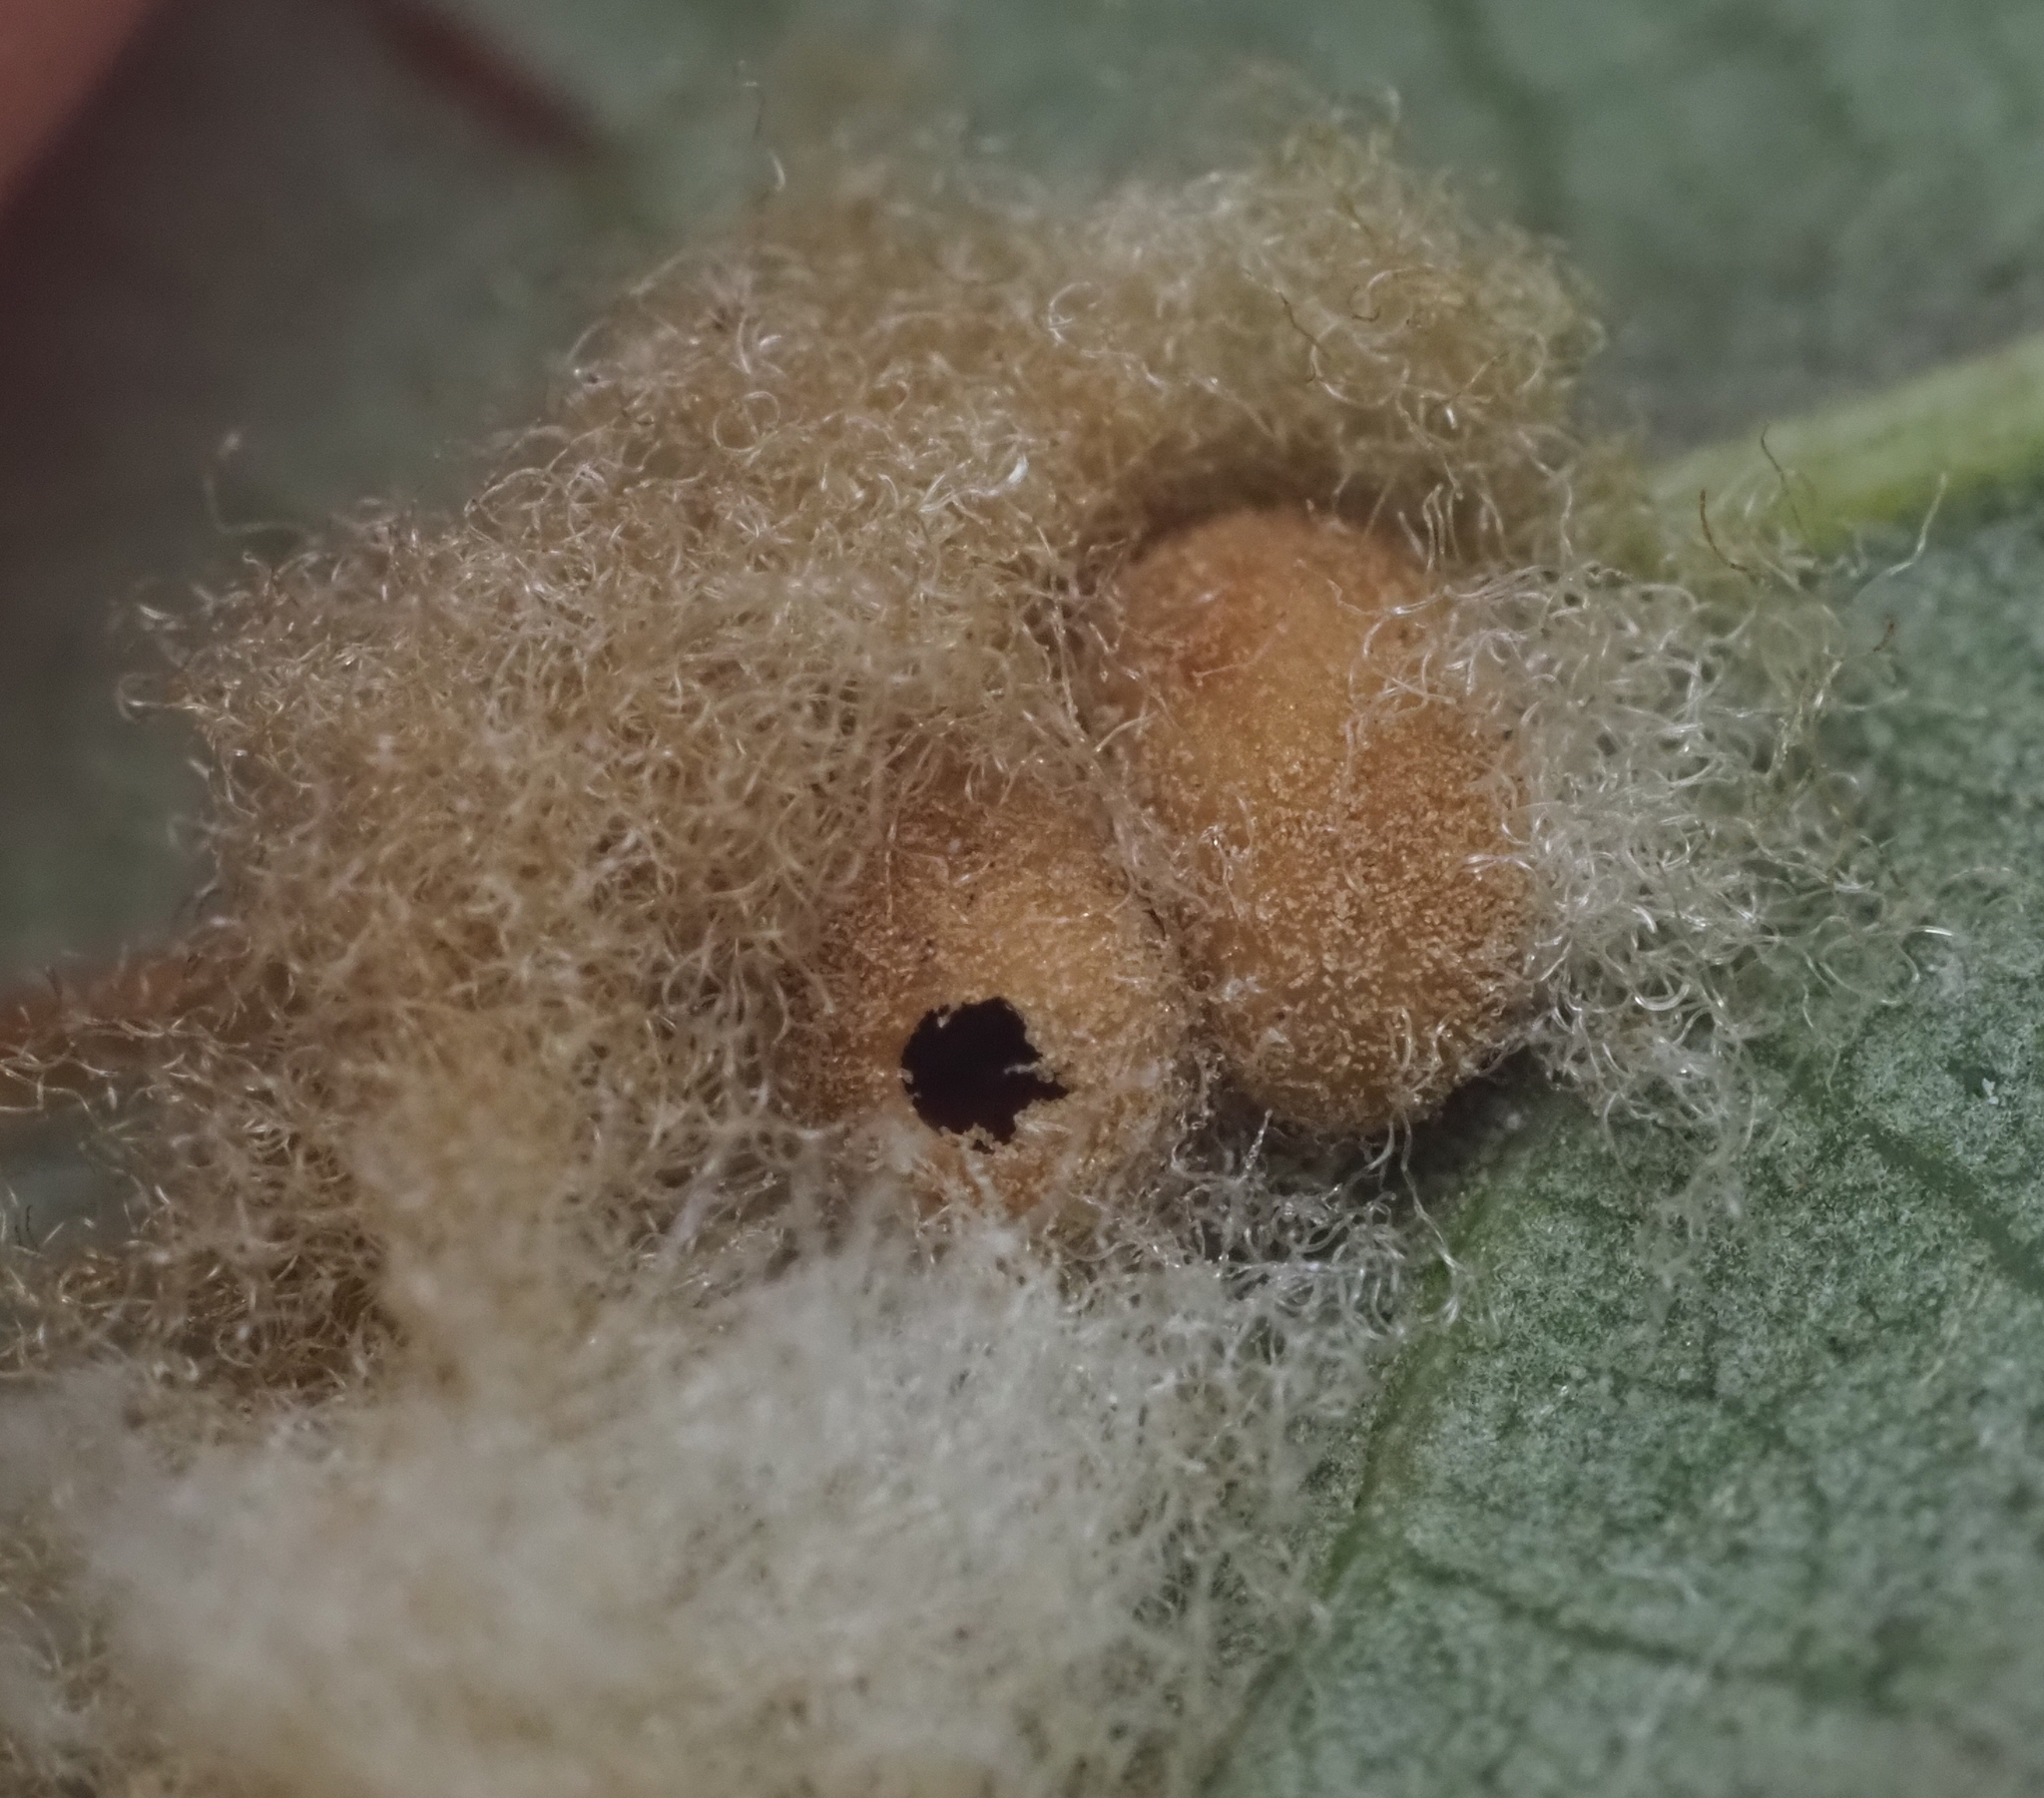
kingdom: Animalia
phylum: Arthropoda
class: Insecta
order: Hymenoptera
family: Cynipidae
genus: Andricus
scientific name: Andricus Druon quercuslanigerum
